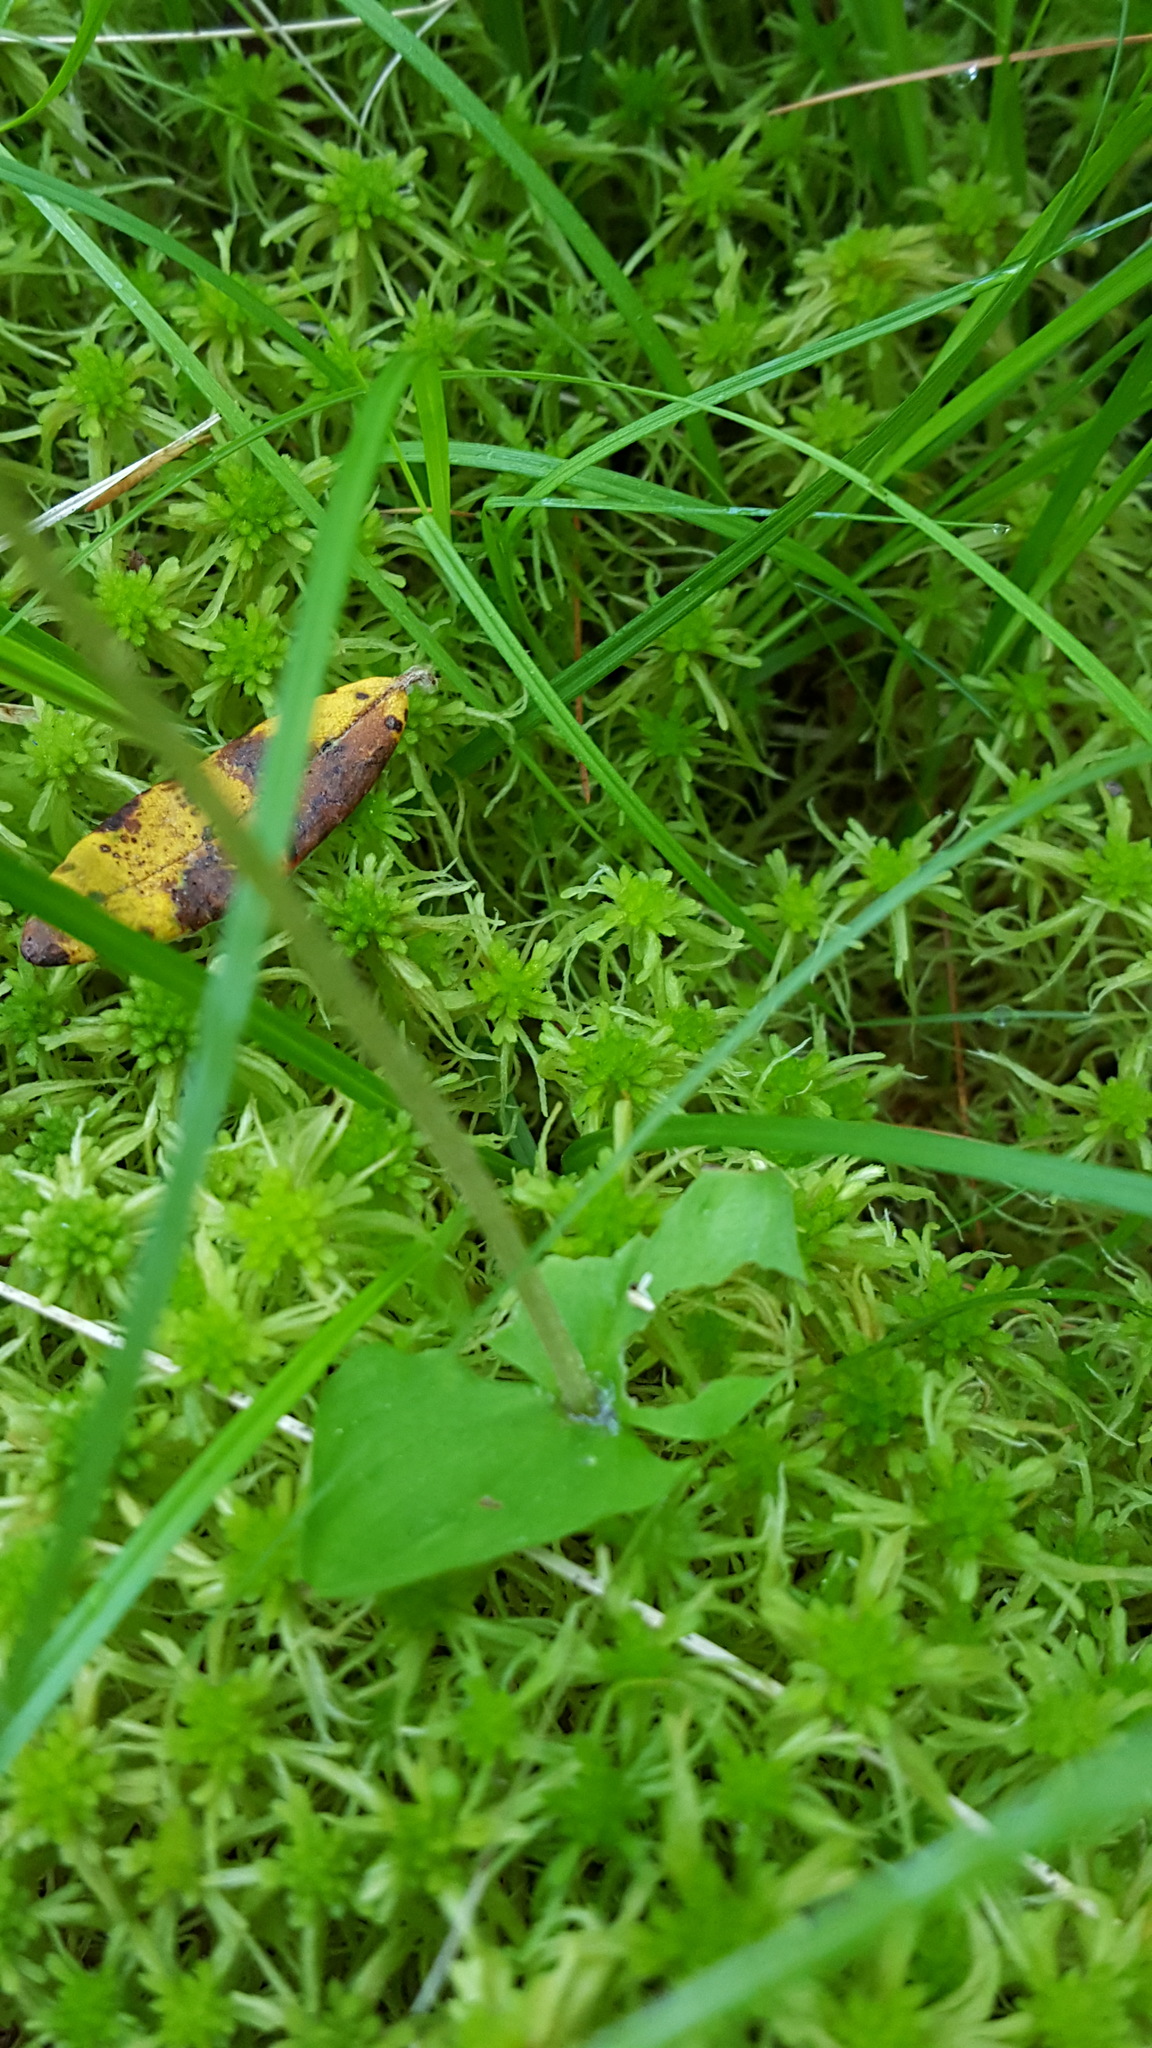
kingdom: Plantae
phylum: Tracheophyta
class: Liliopsida
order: Asparagales
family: Orchidaceae
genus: Neottia
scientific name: Neottia cordata
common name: Lesser twayblade
